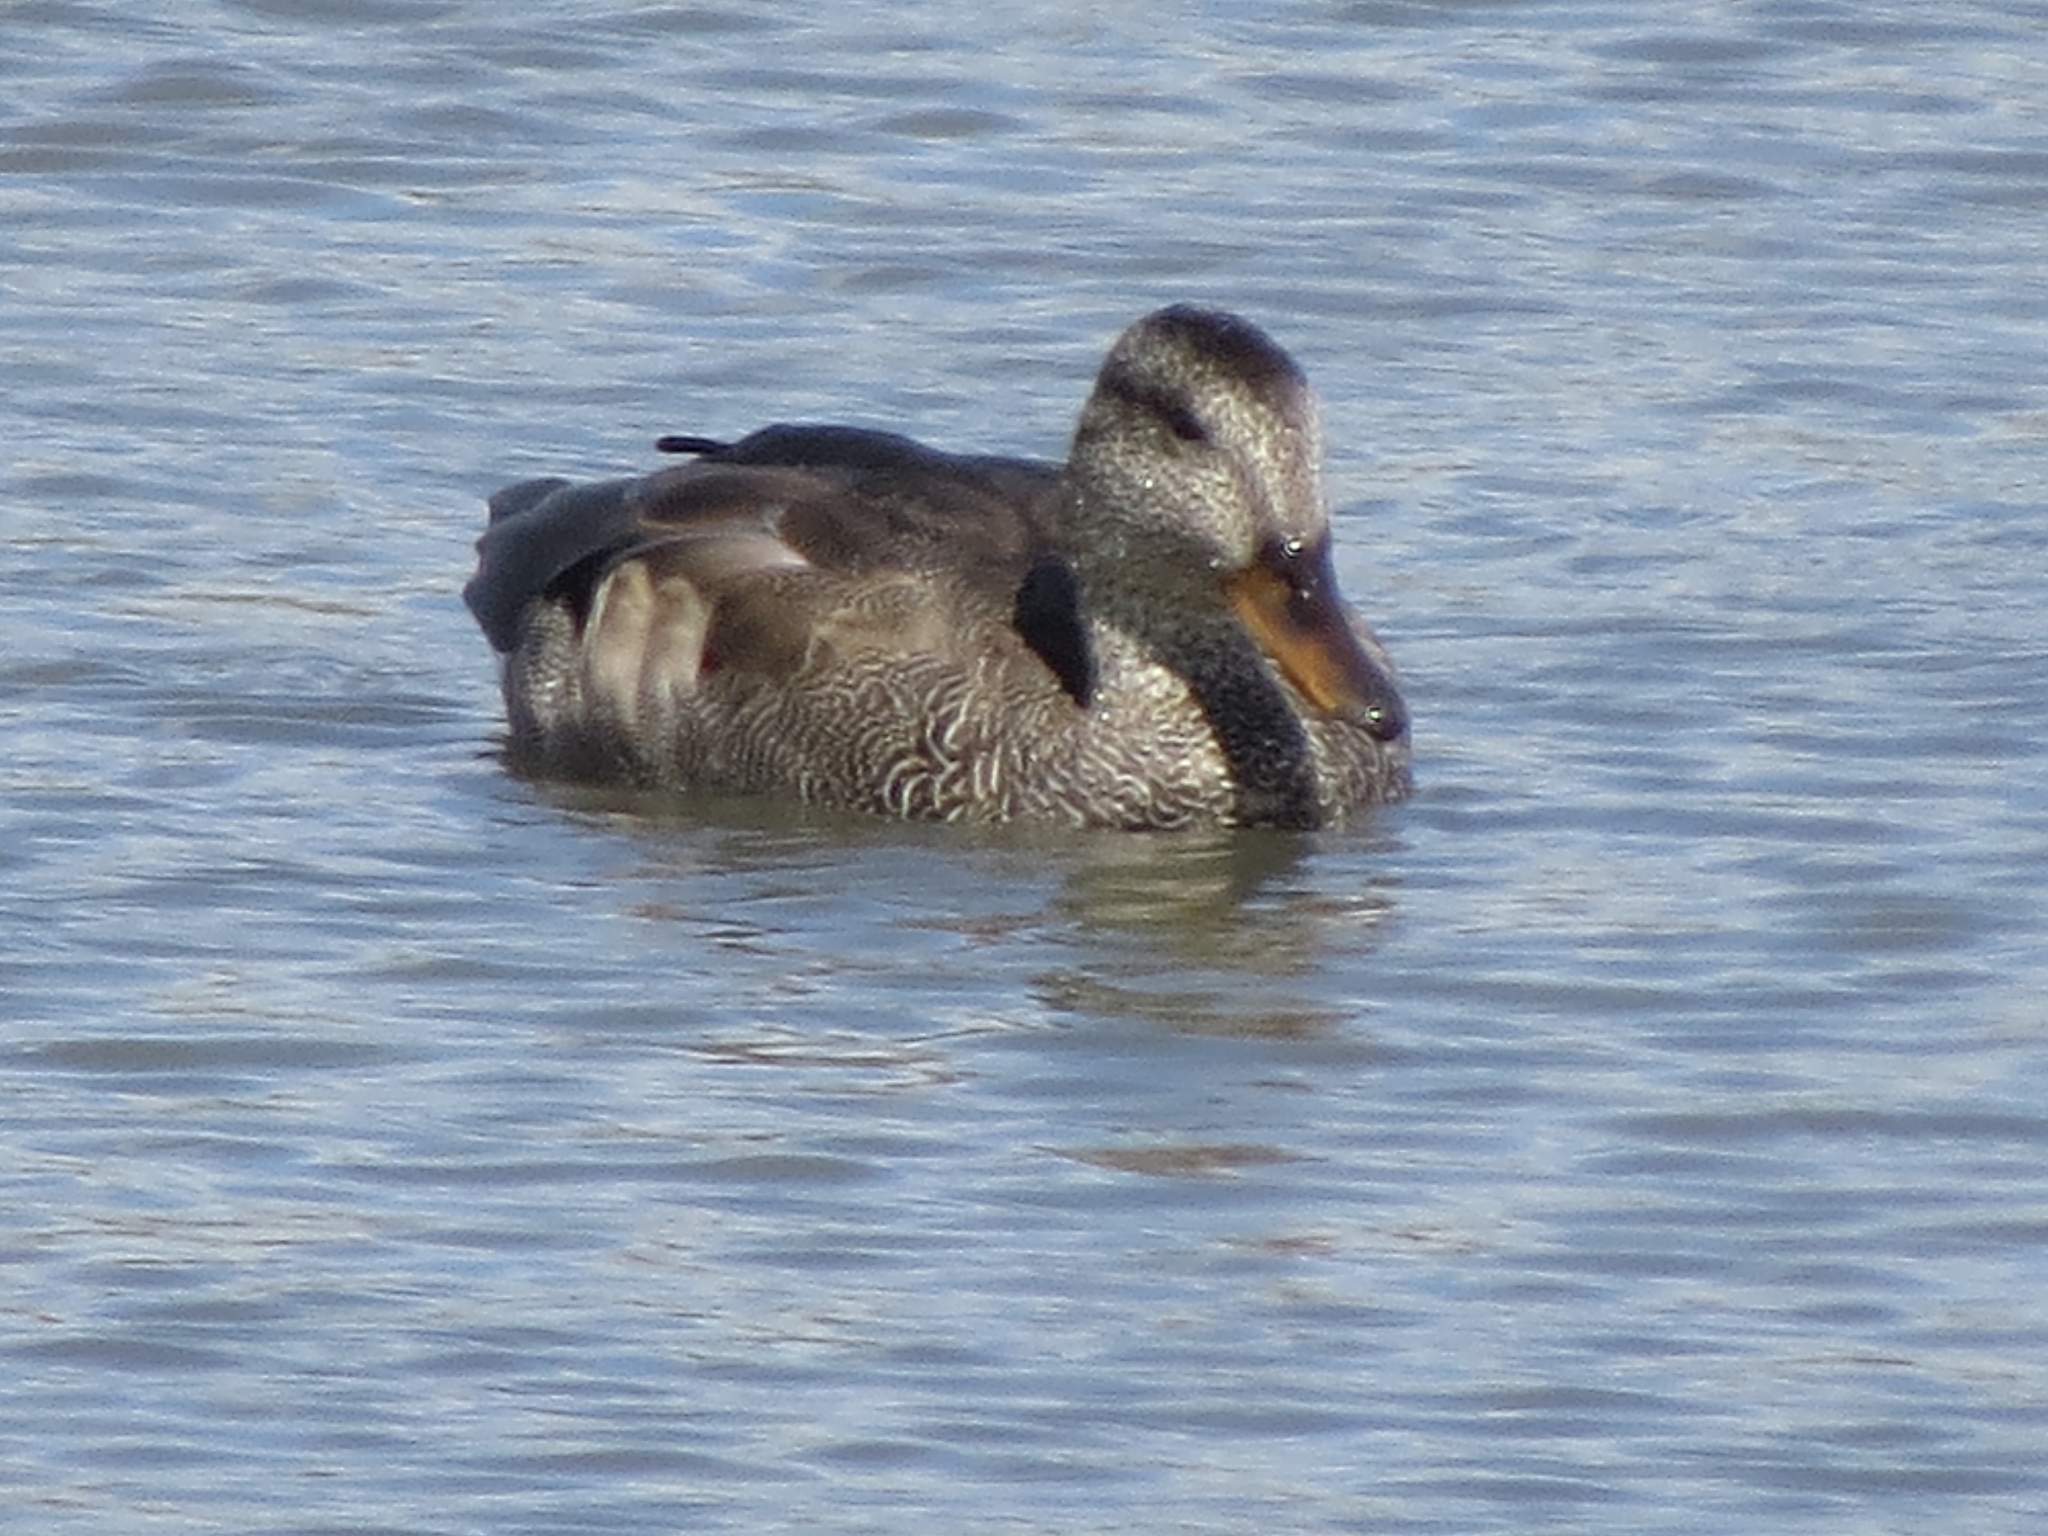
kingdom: Animalia
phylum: Chordata
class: Aves
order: Anseriformes
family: Anatidae
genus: Mareca
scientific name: Mareca strepera
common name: Gadwall
